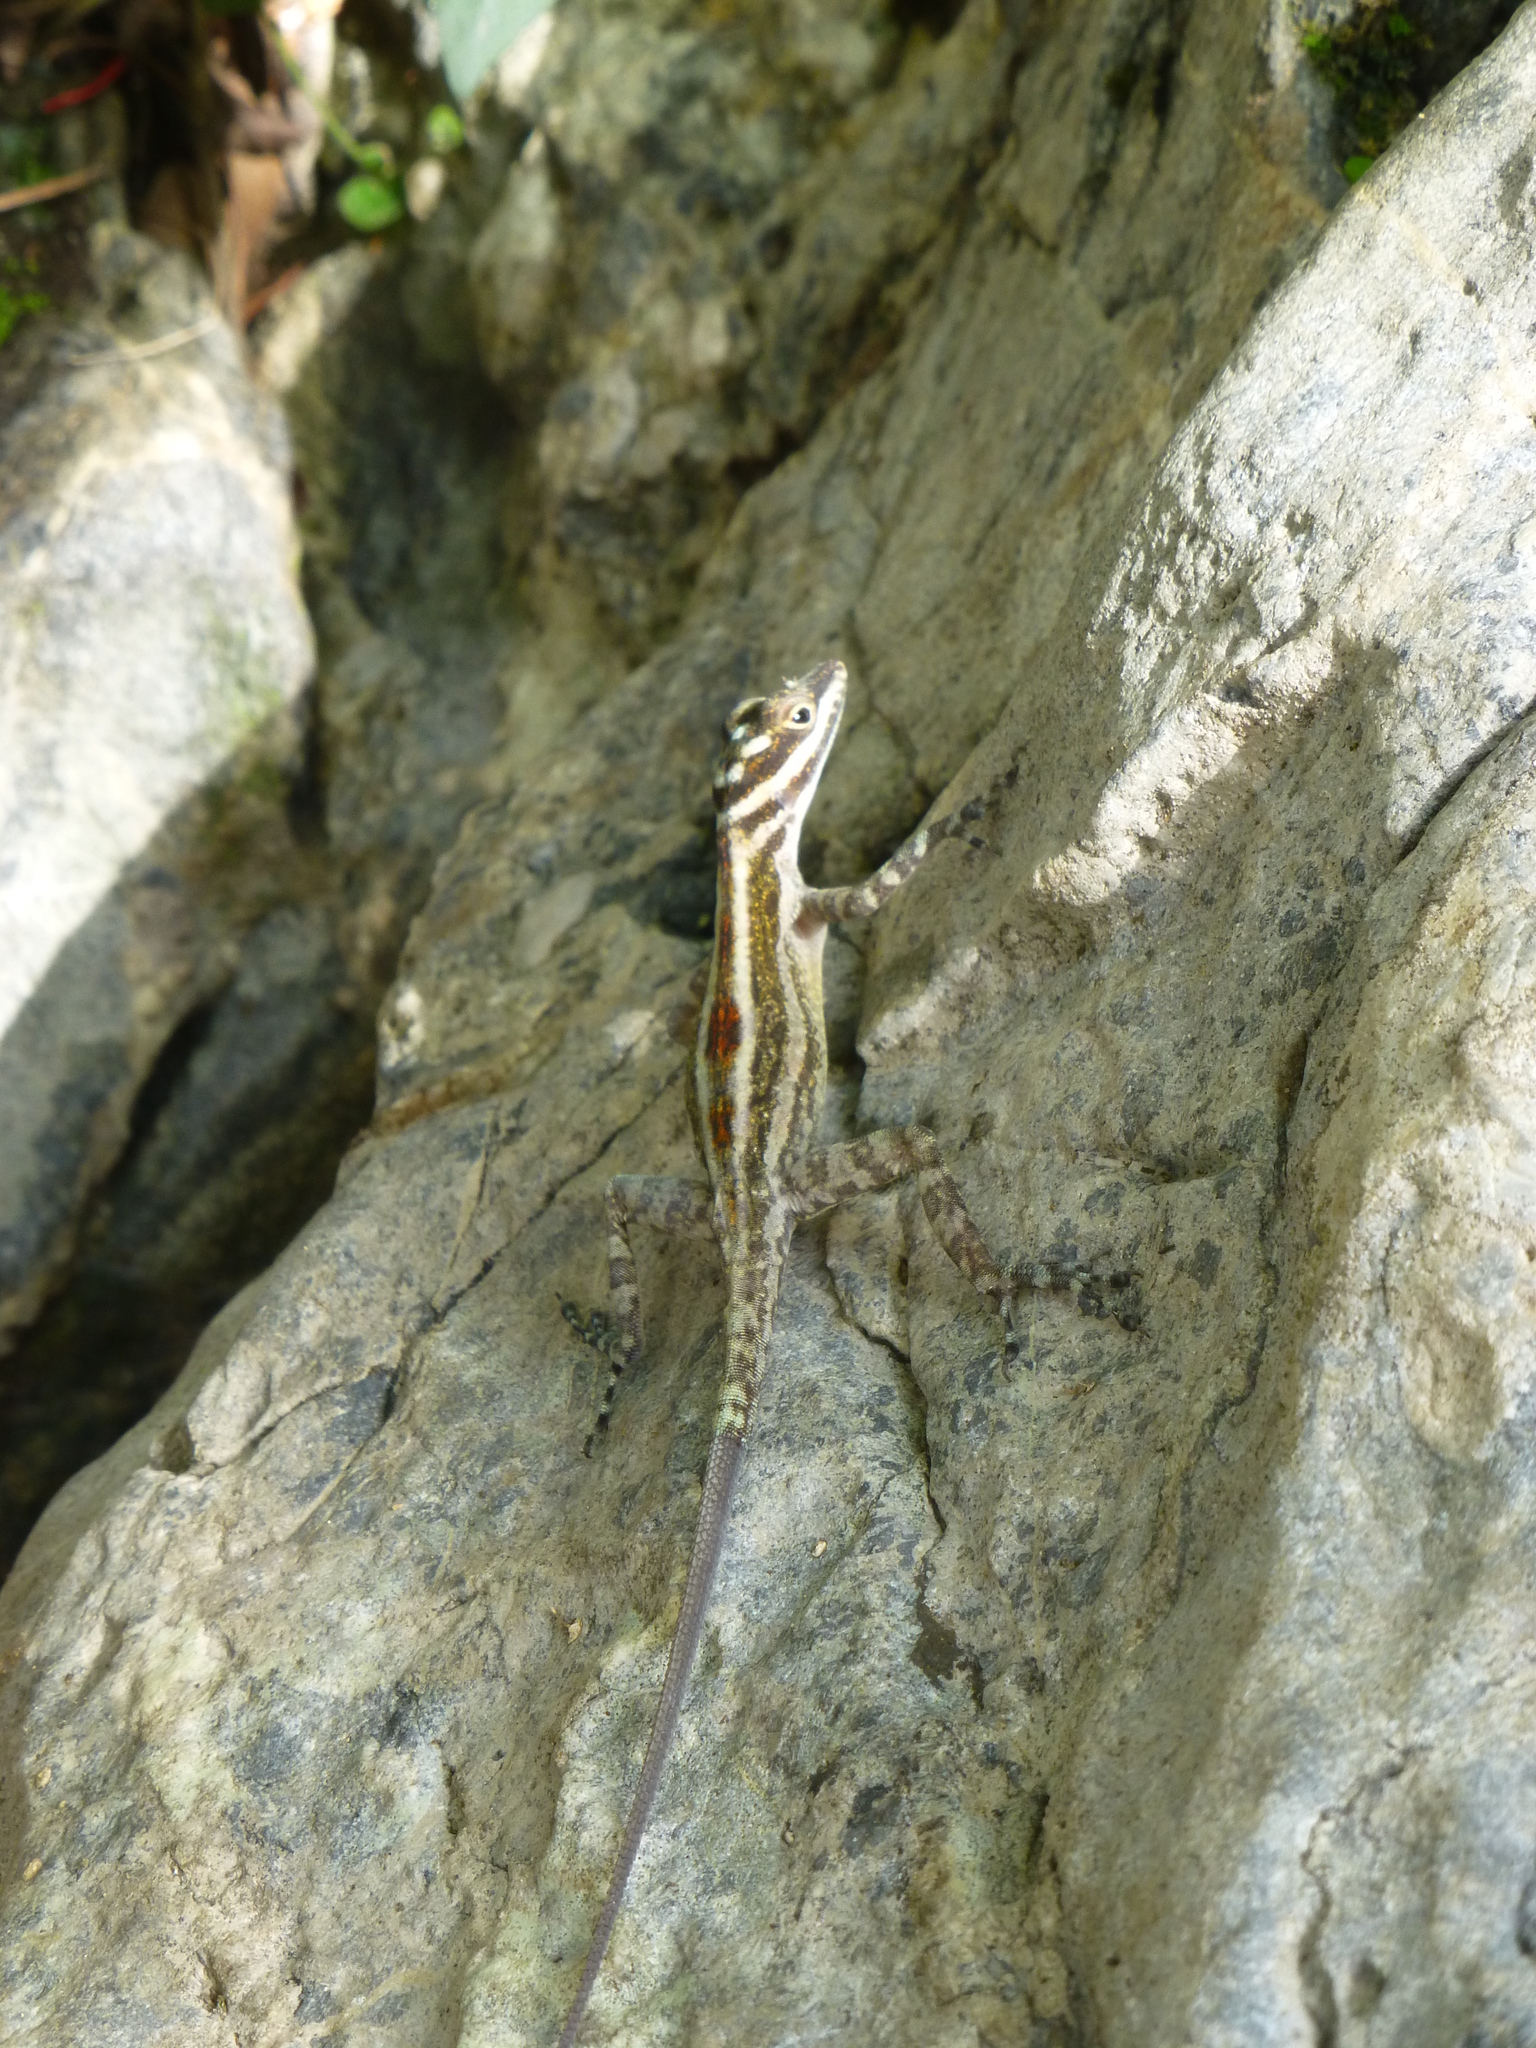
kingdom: Animalia
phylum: Chordata
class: Squamata
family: Dactyloidae
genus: Anolis
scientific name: Anolis lucius
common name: Cave anole
